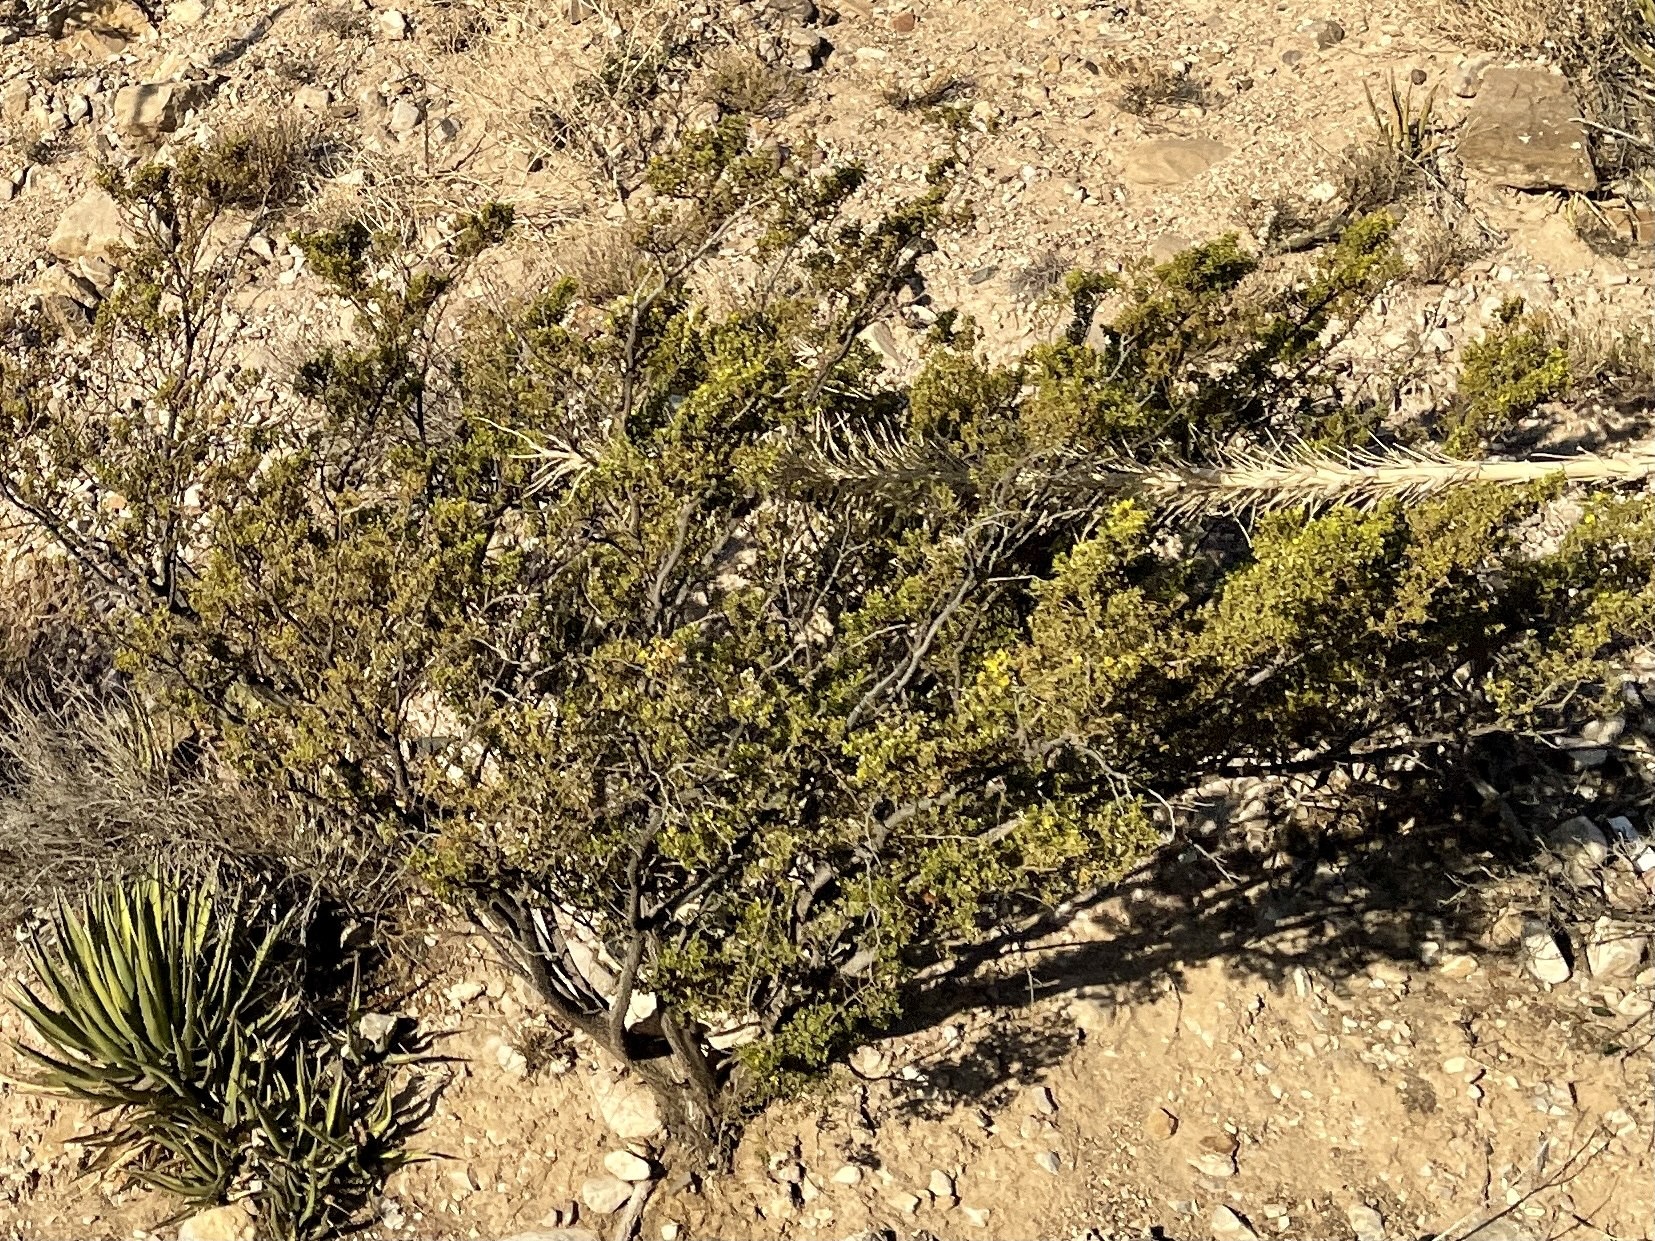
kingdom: Plantae
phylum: Tracheophyta
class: Magnoliopsida
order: Zygophyllales
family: Zygophyllaceae
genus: Larrea
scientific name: Larrea tridentata
